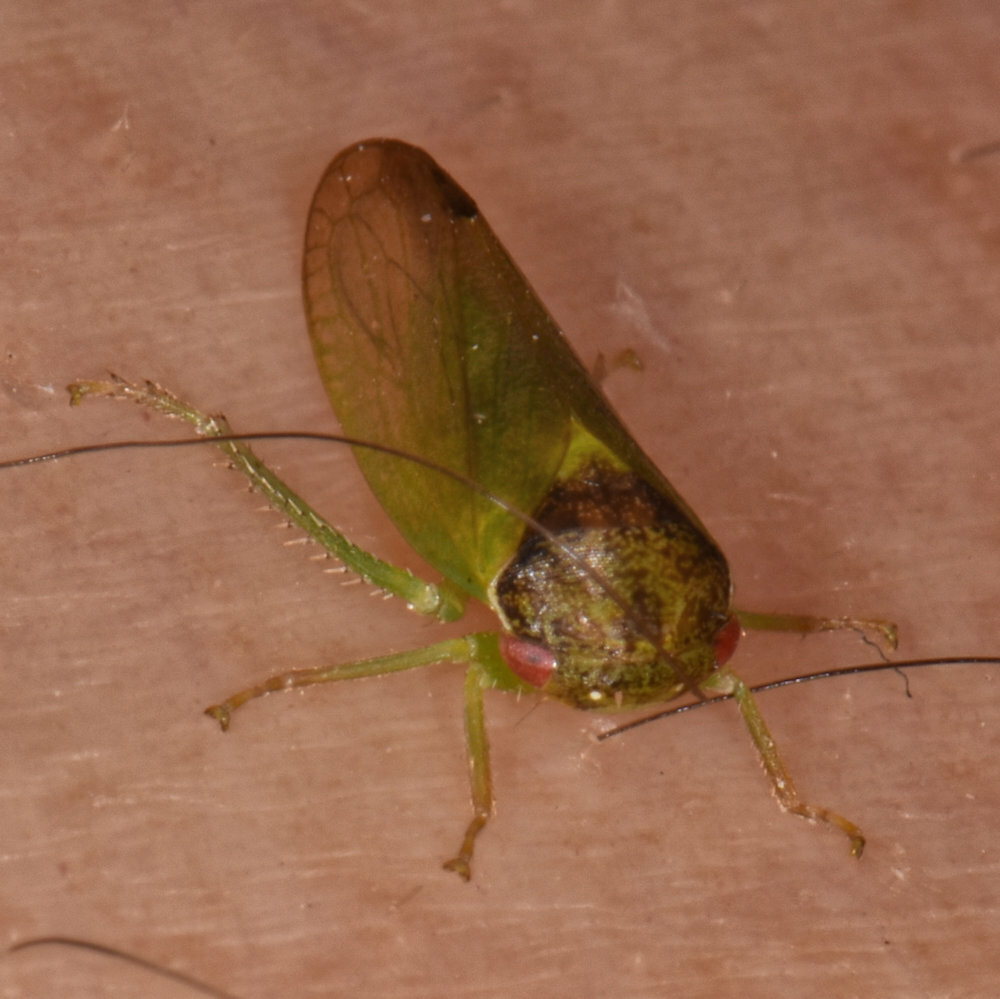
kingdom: Animalia
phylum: Arthropoda
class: Insecta
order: Hemiptera
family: Cicadellidae
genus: Iassus
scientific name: Iassus lanio
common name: Leafhopper
